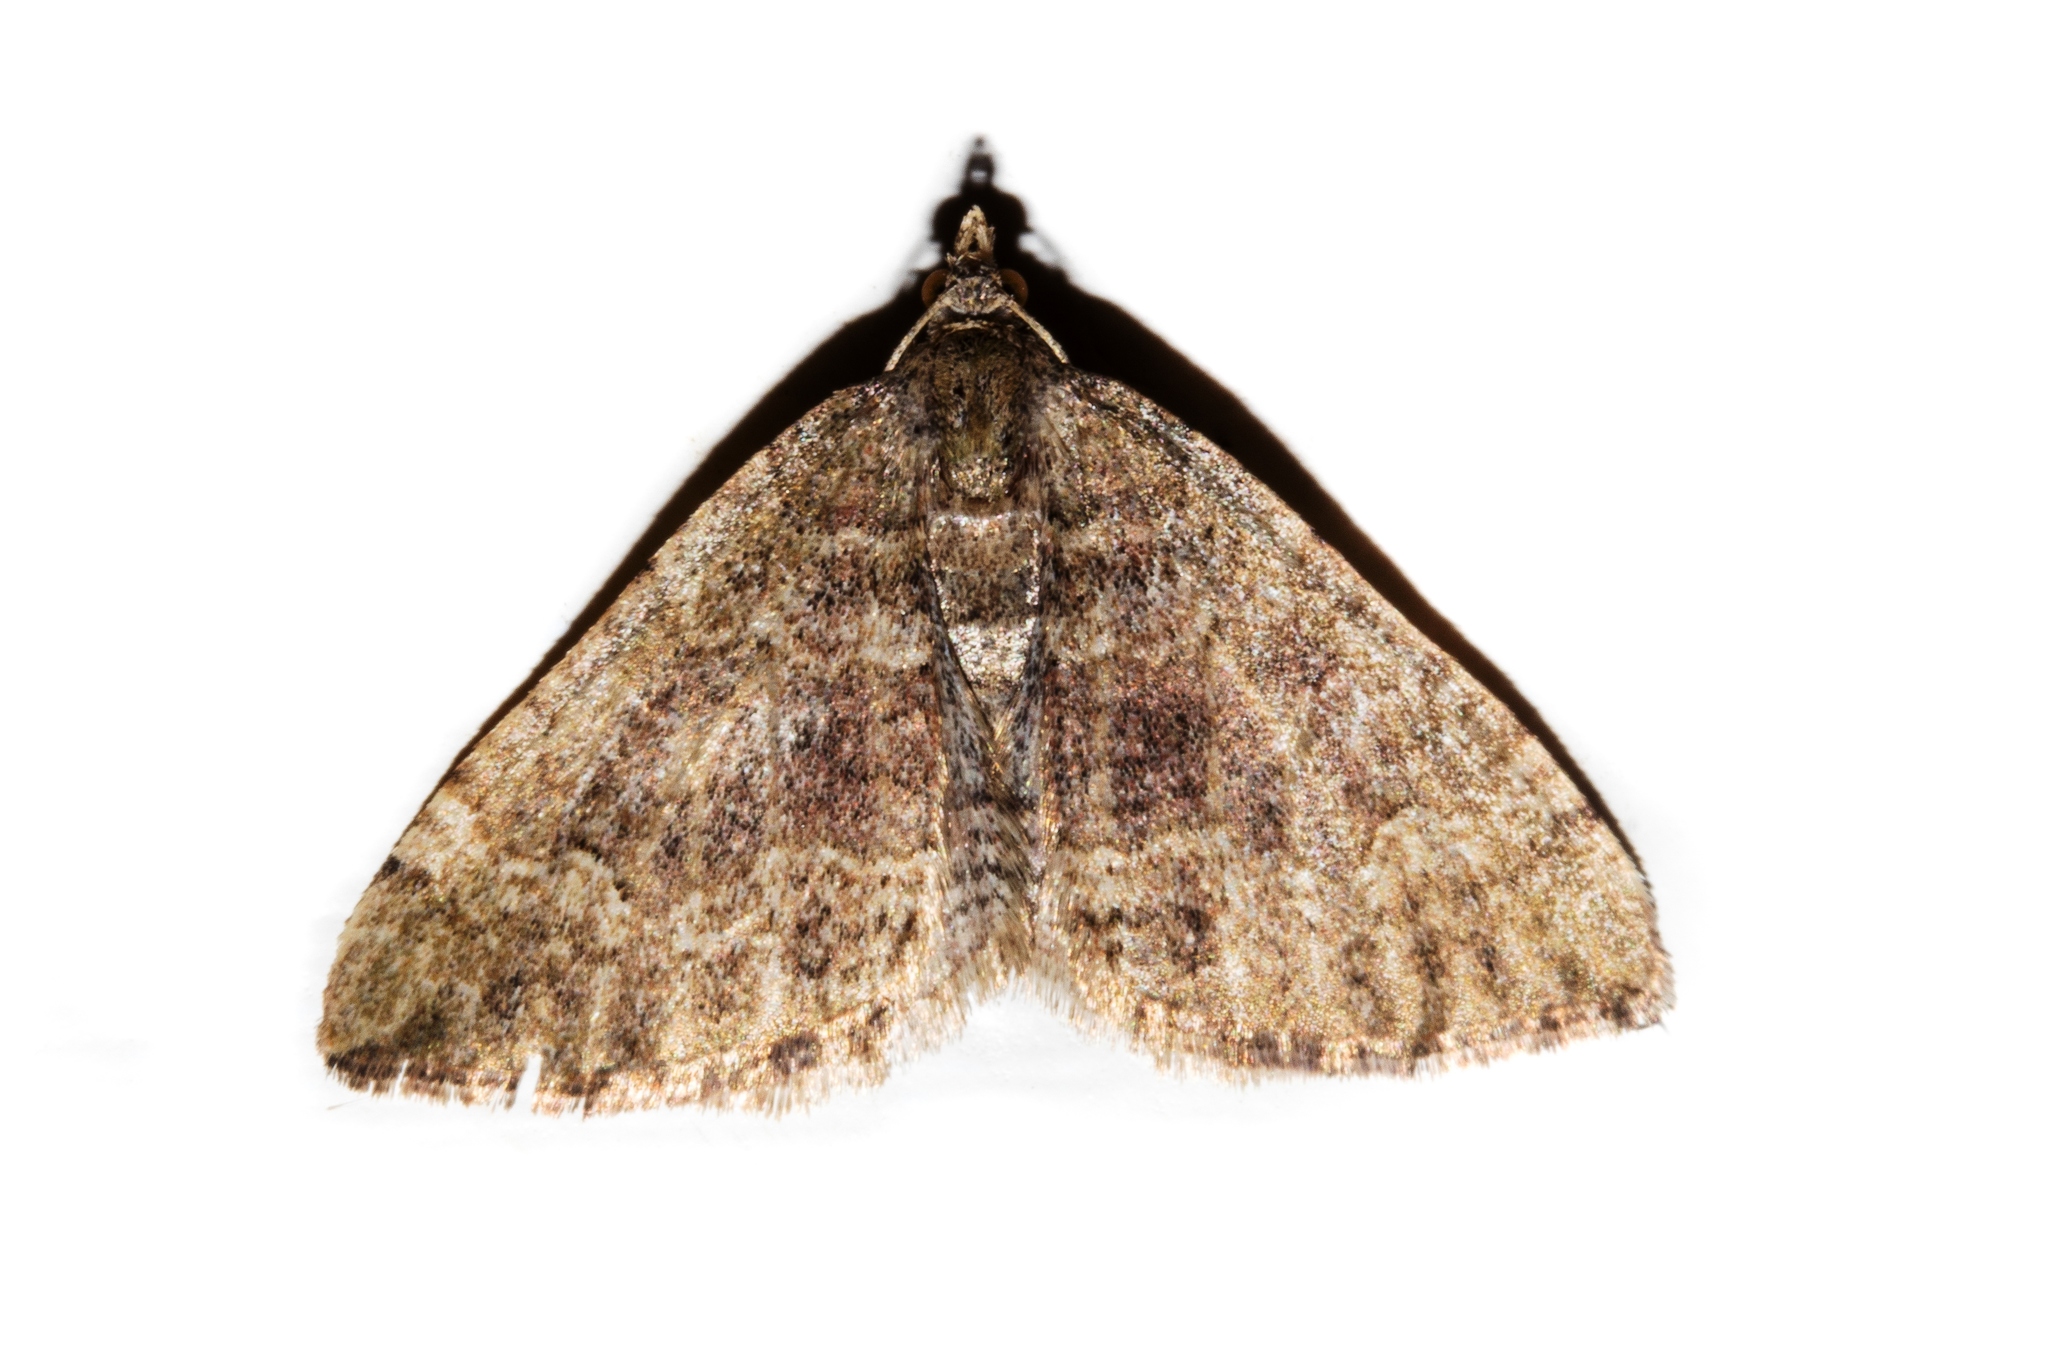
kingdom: Animalia
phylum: Arthropoda
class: Insecta
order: Lepidoptera
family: Geometridae
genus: Hydriomena
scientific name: Hydriomena hemizona
